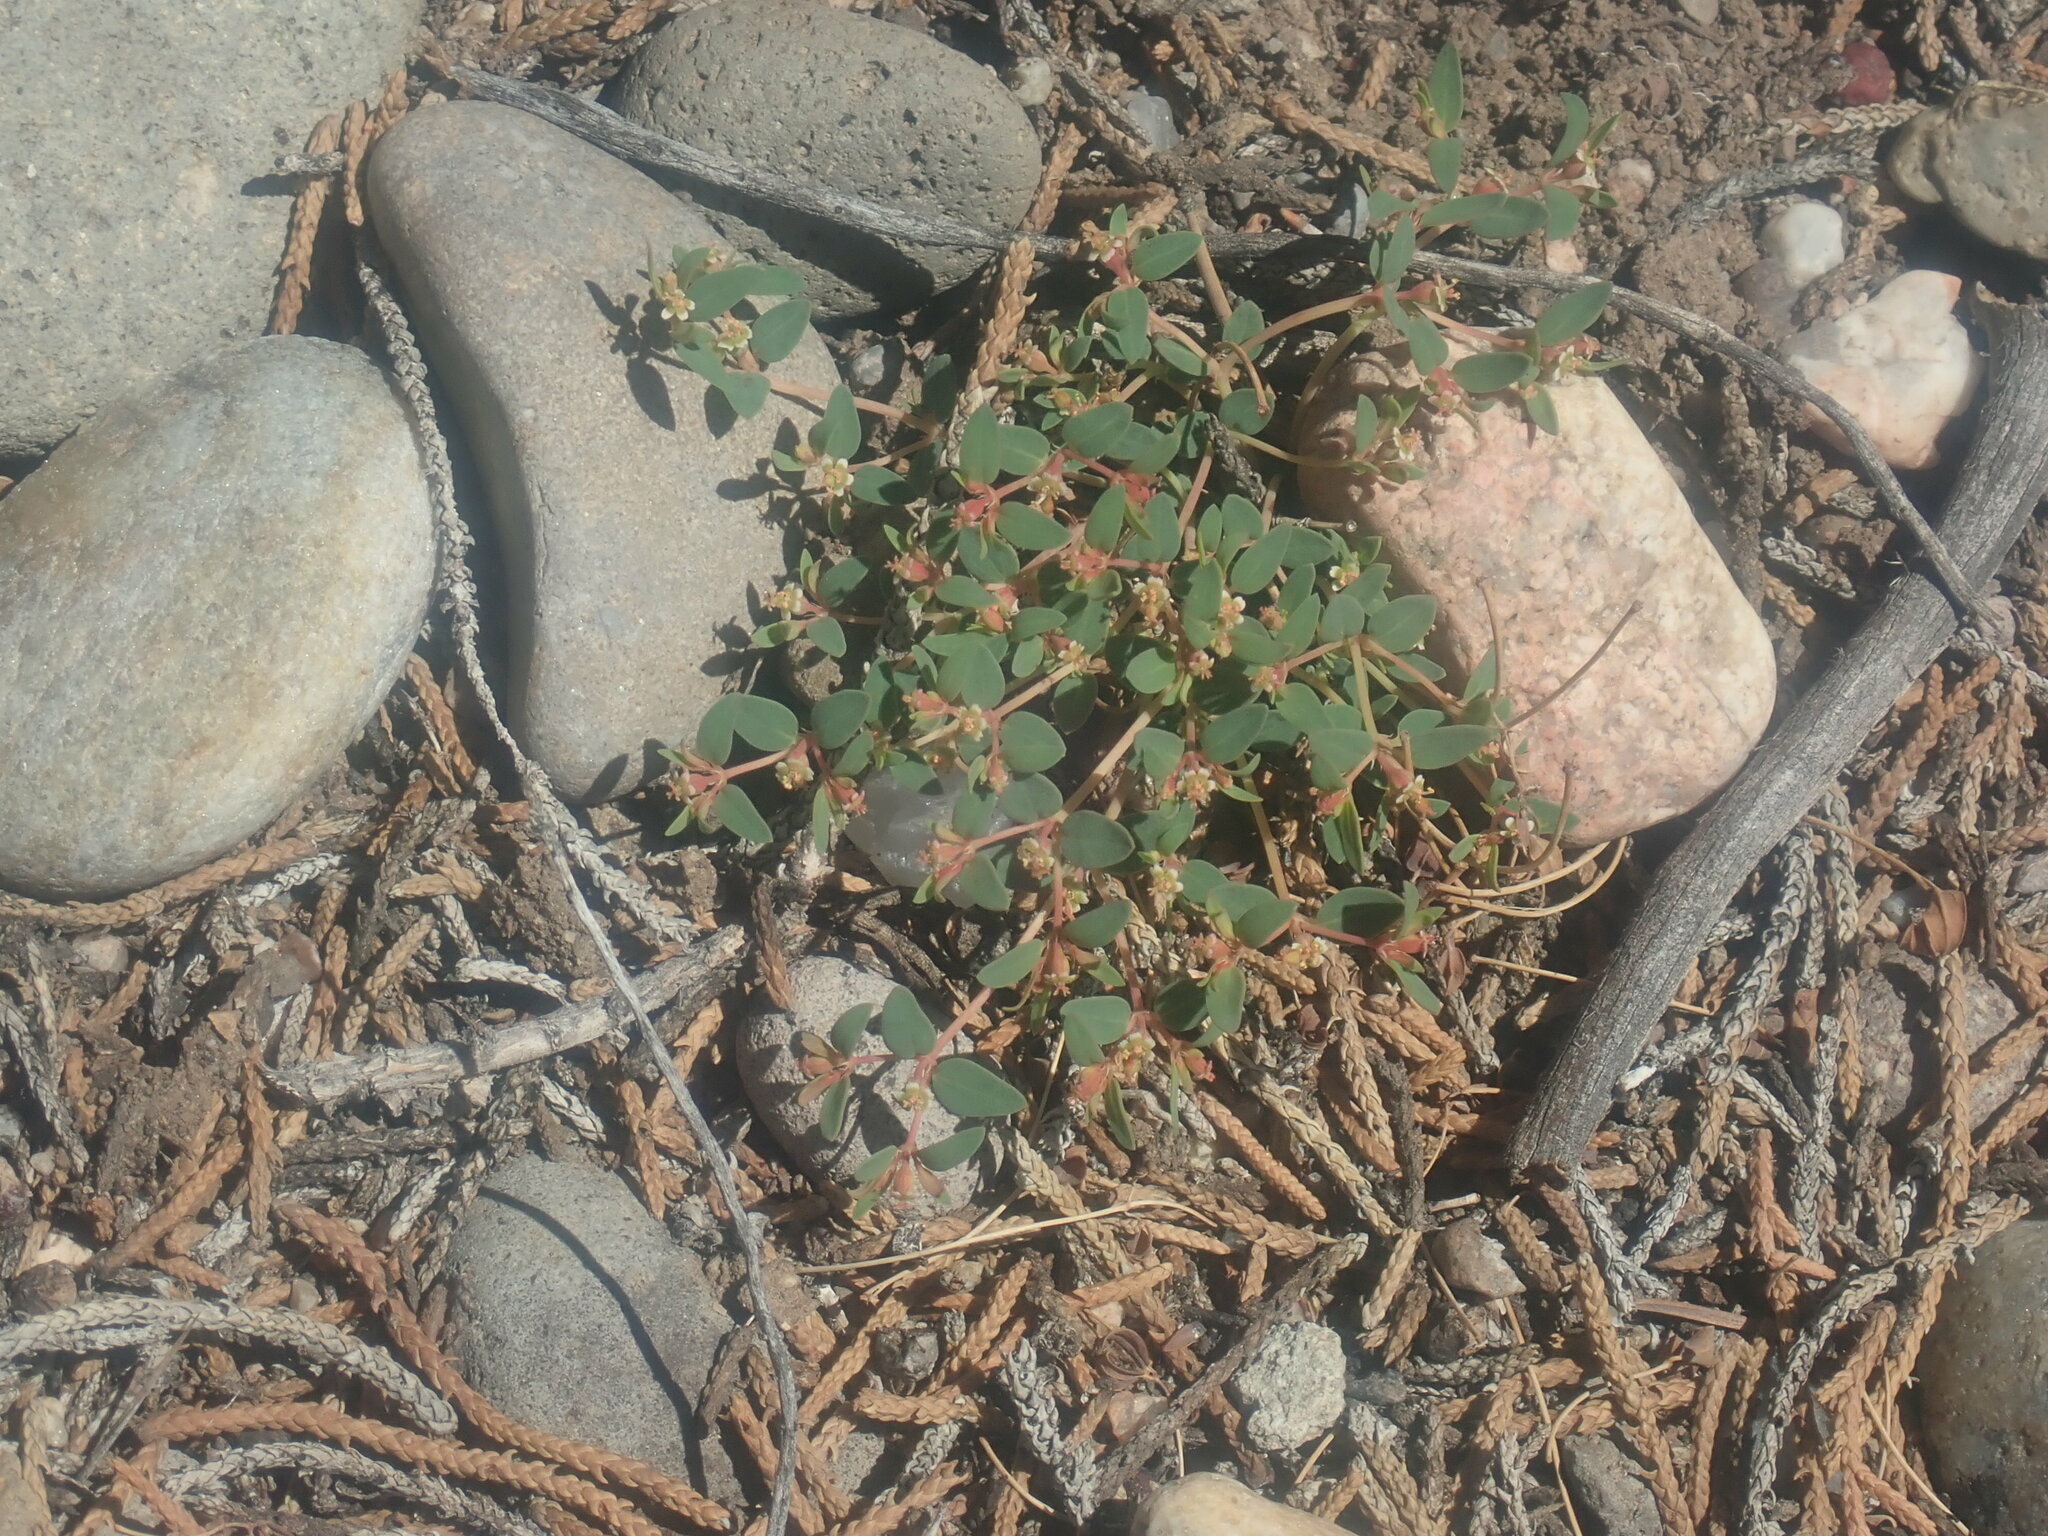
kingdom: Plantae
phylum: Tracheophyta
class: Magnoliopsida
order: Malpighiales
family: Euphorbiaceae
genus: Euphorbia
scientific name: Euphorbia fendleri
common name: Fendler's euphorbia
